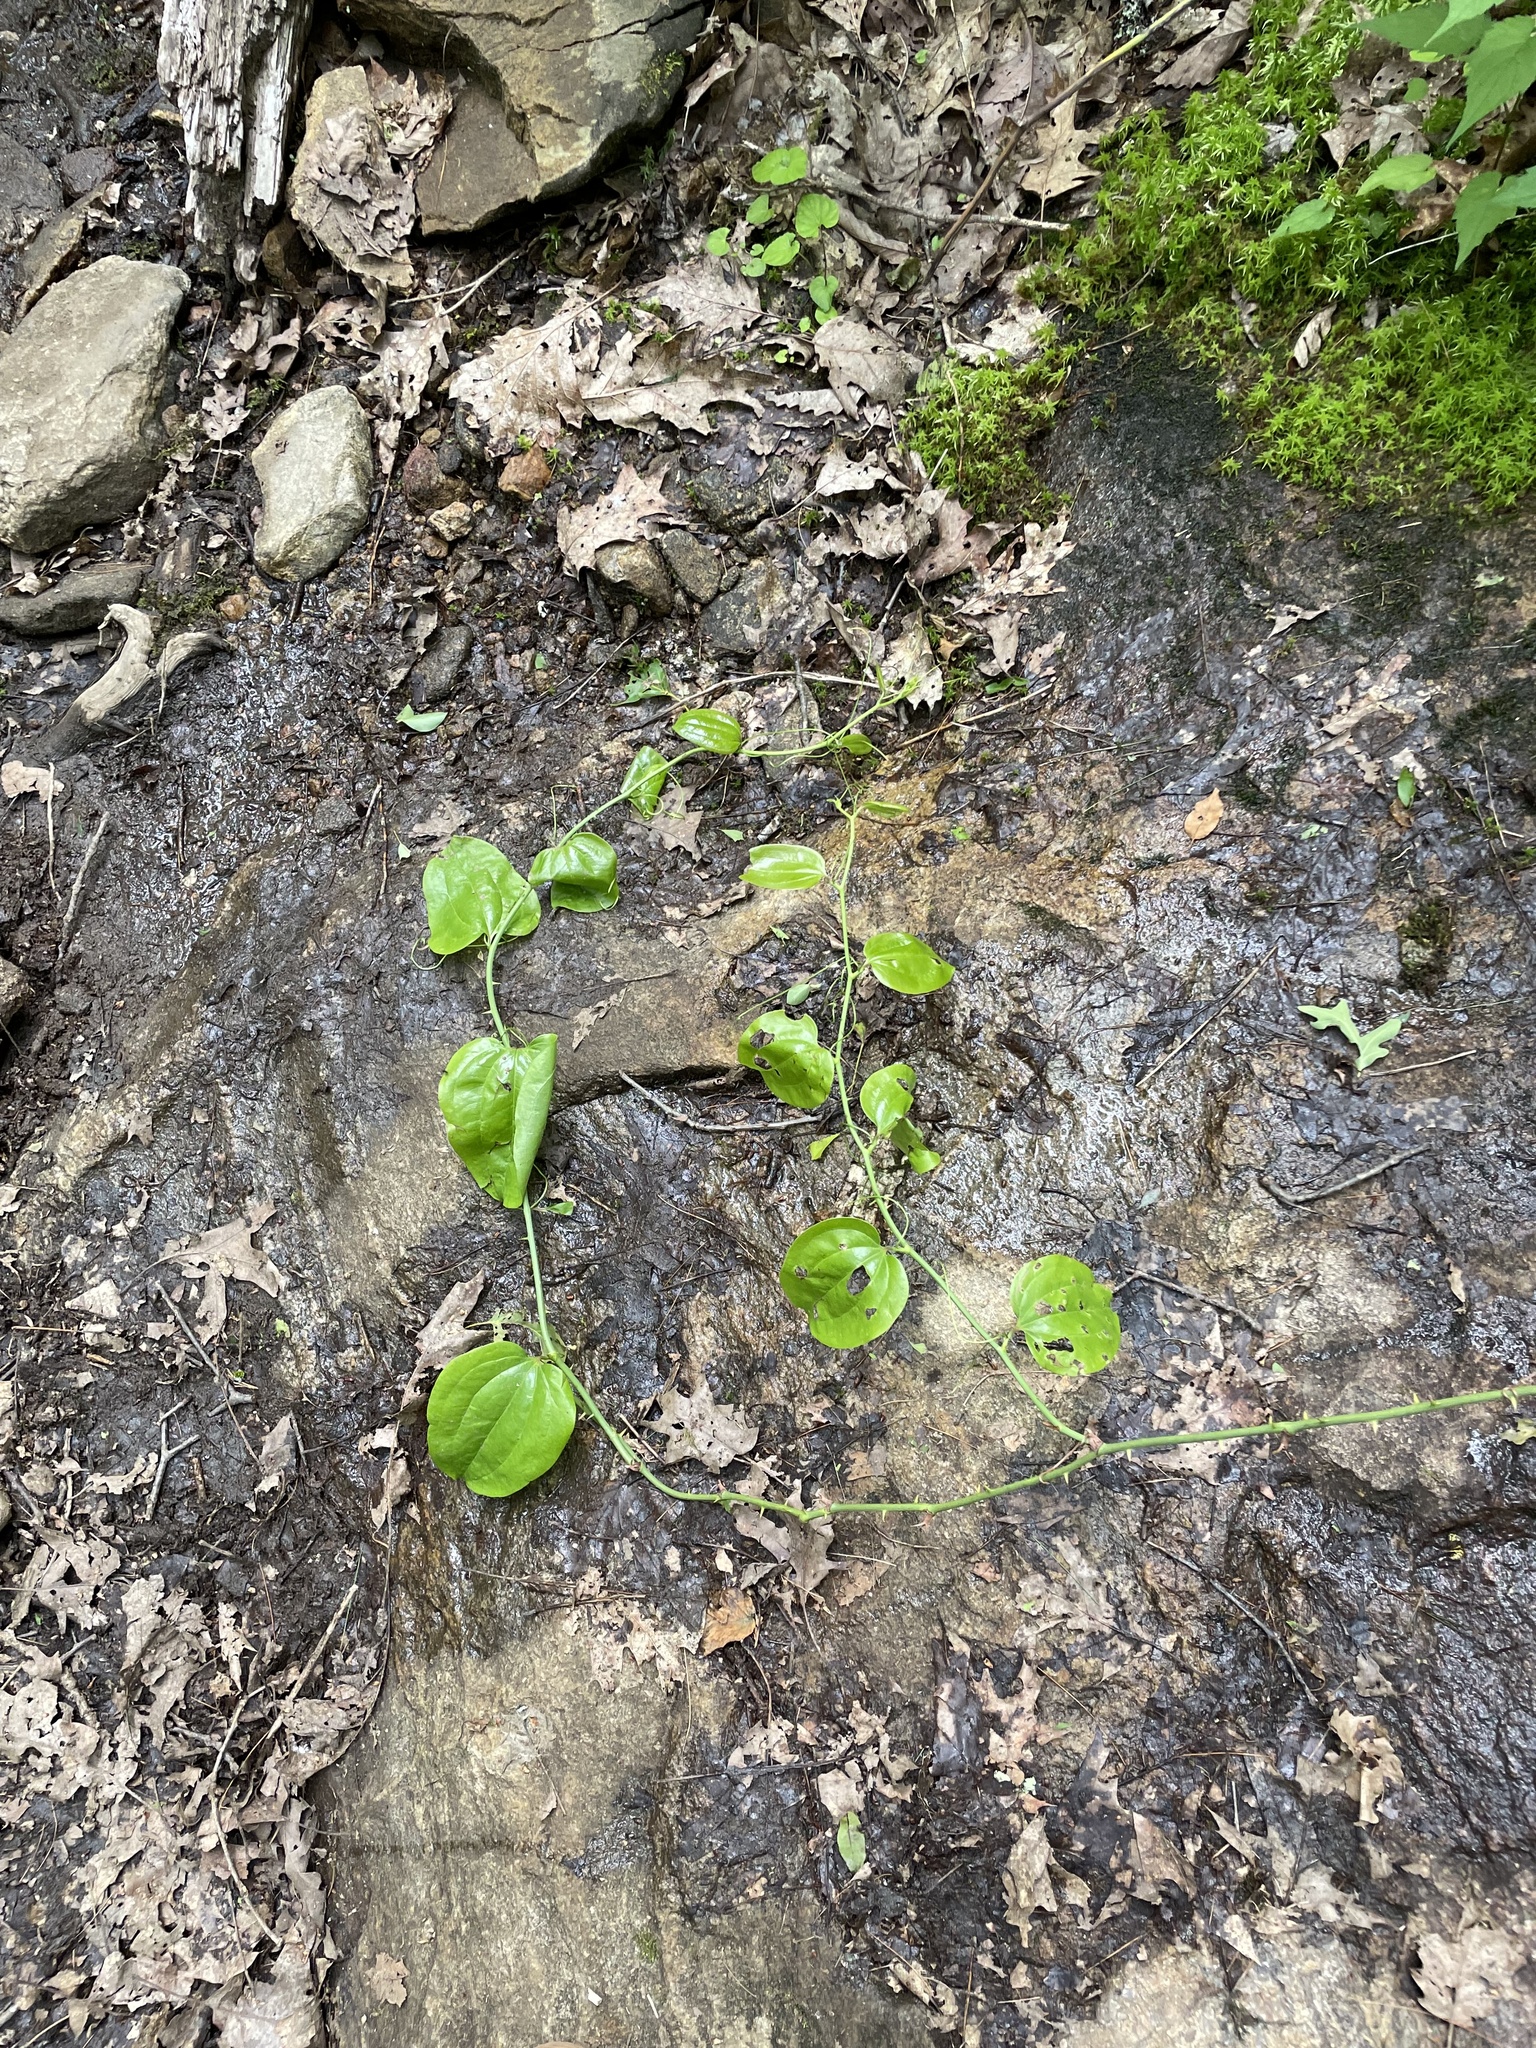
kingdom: Plantae
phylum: Tracheophyta
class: Liliopsida
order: Liliales
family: Smilacaceae
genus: Smilax
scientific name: Smilax rotundifolia
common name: Bullbriar
